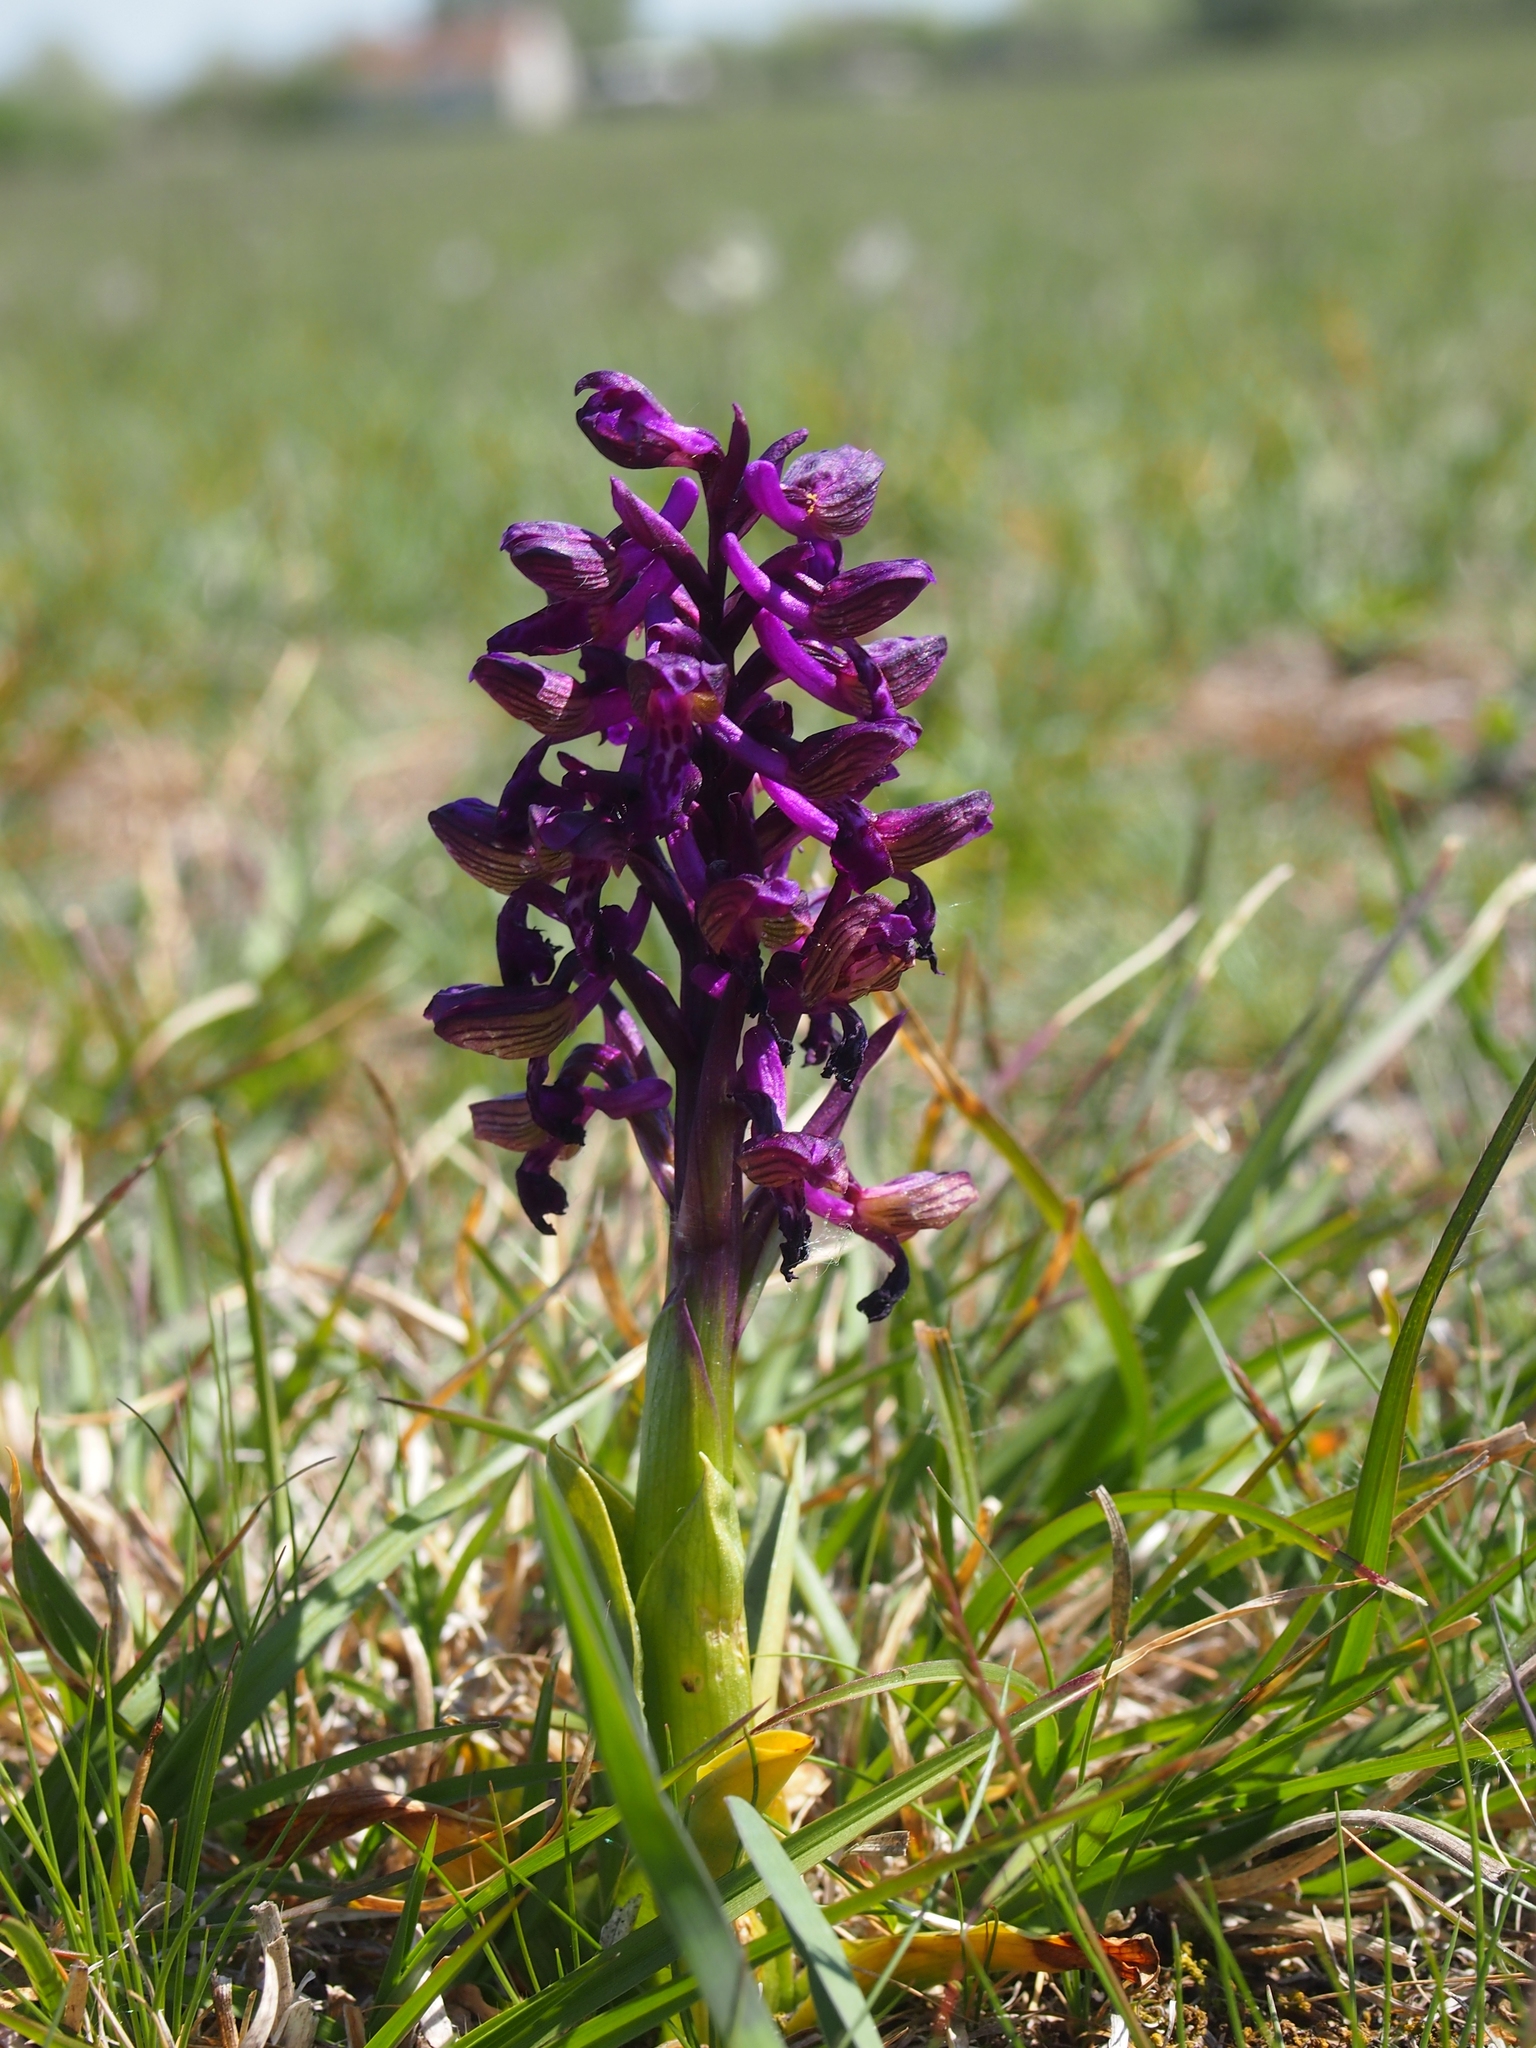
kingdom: Plantae
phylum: Tracheophyta
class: Liliopsida
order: Asparagales
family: Orchidaceae
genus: Anacamptis
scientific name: Anacamptis morio
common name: Green-winged orchid
